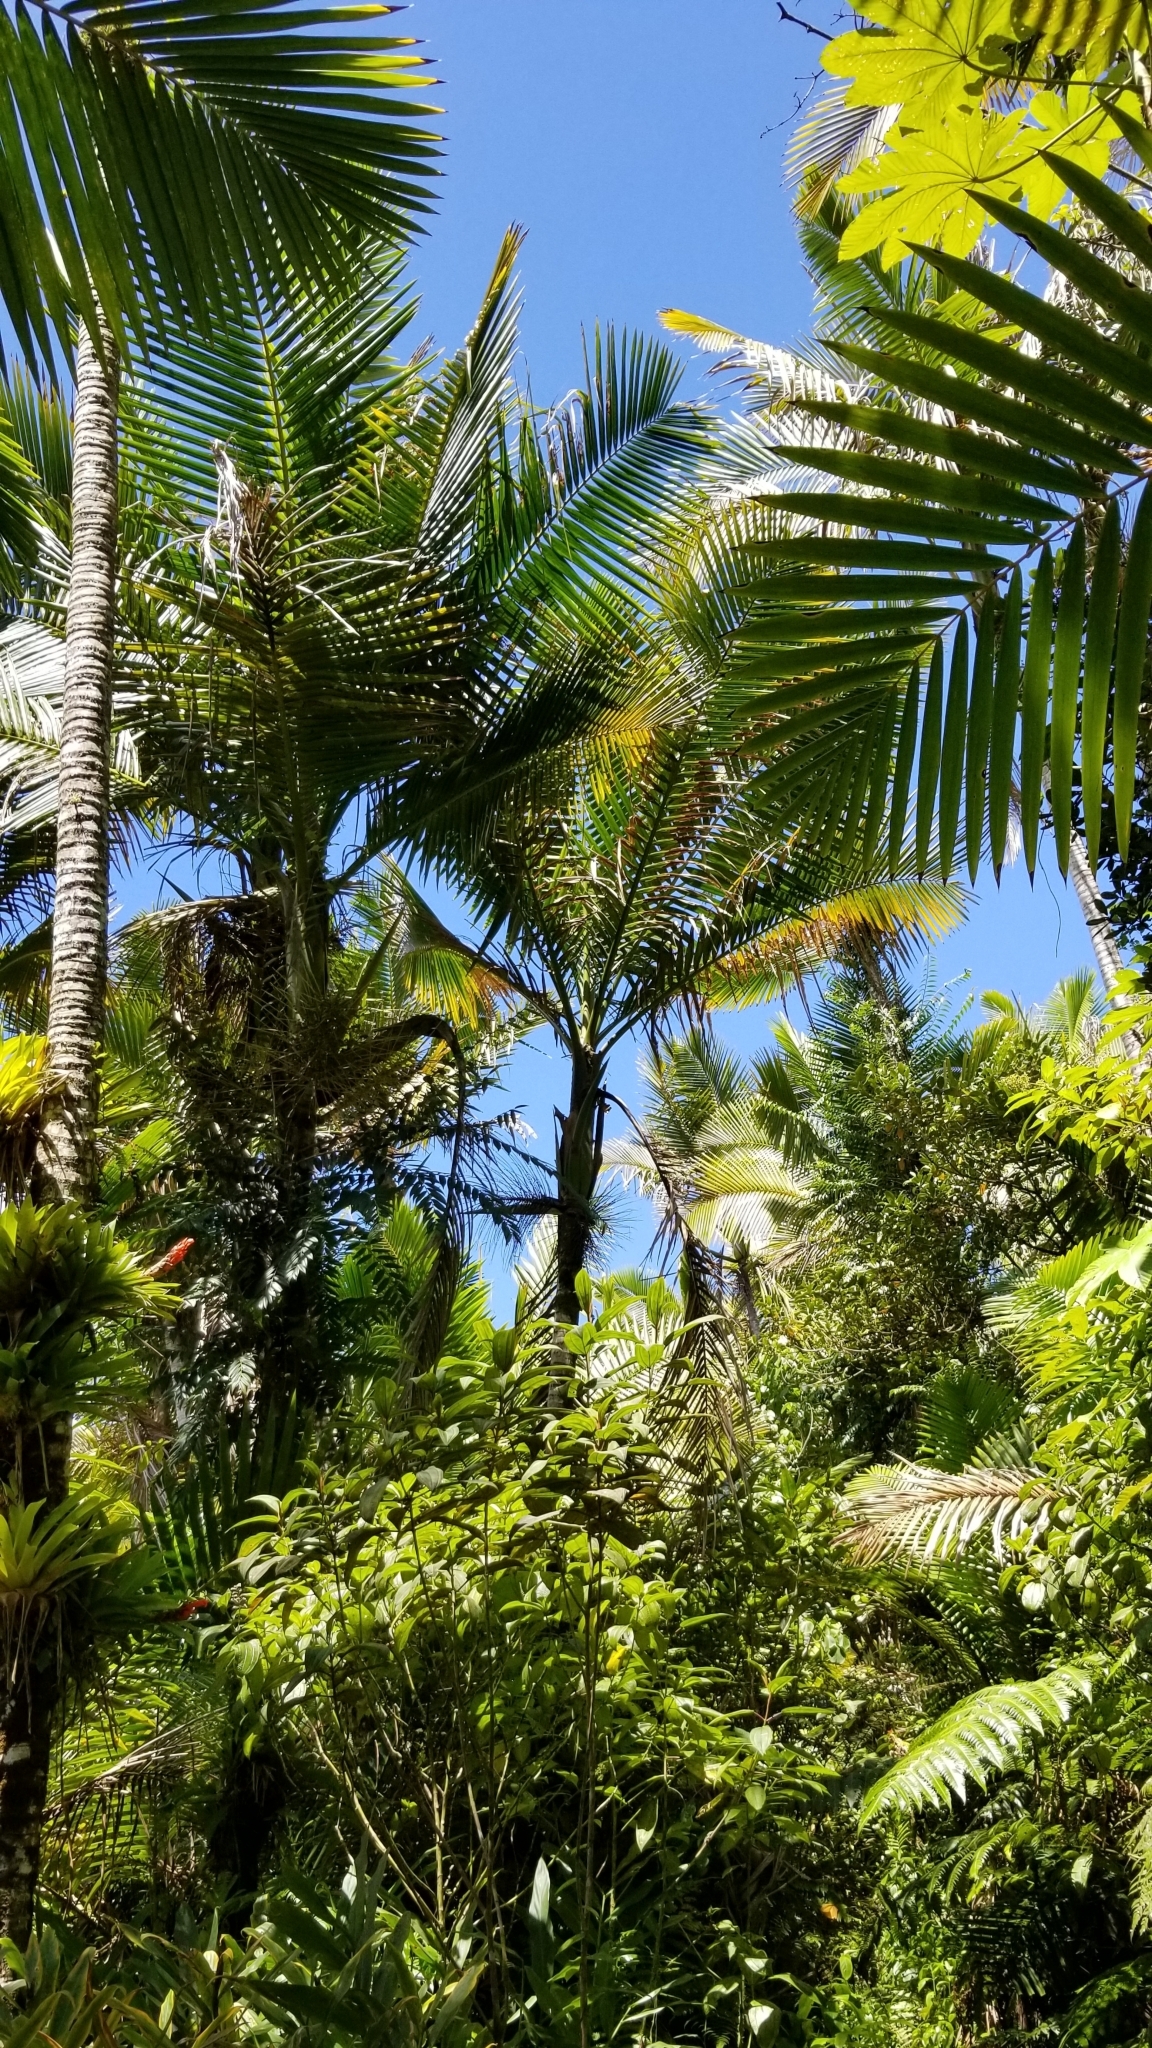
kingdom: Plantae
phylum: Tracheophyta
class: Liliopsida
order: Arecales
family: Arecaceae
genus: Prestoea
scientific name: Prestoea acuminata
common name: Sierran palm
